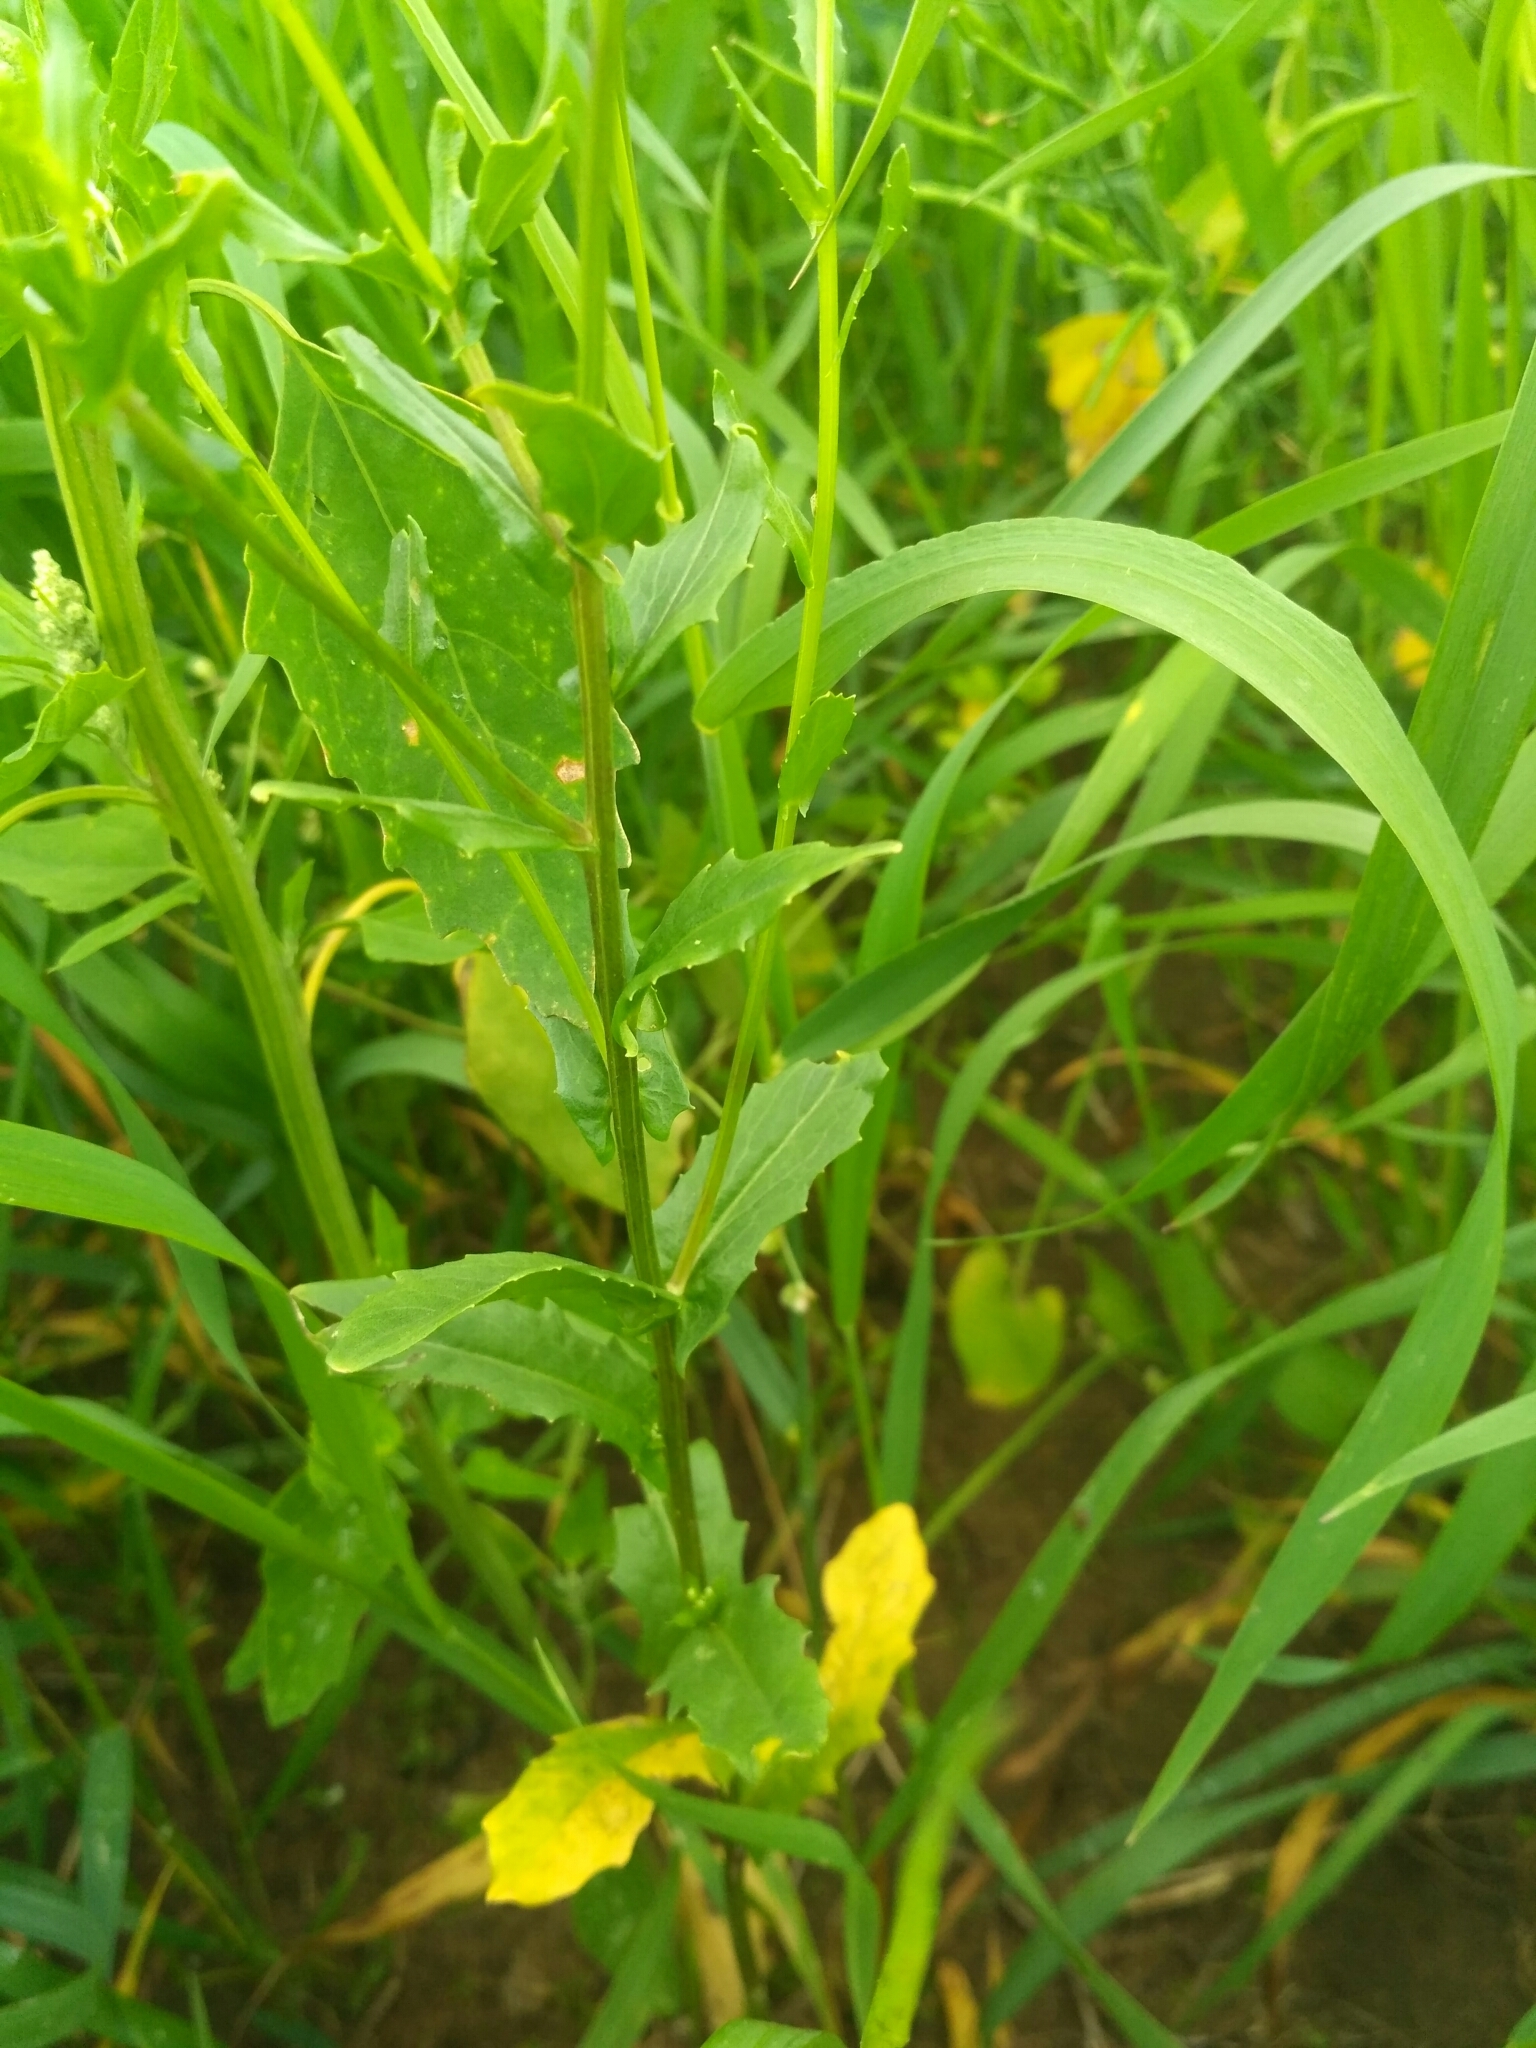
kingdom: Plantae
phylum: Tracheophyta
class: Magnoliopsida
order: Brassicales
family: Brassicaceae
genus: Thlaspi
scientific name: Thlaspi arvense
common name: Field pennycress
